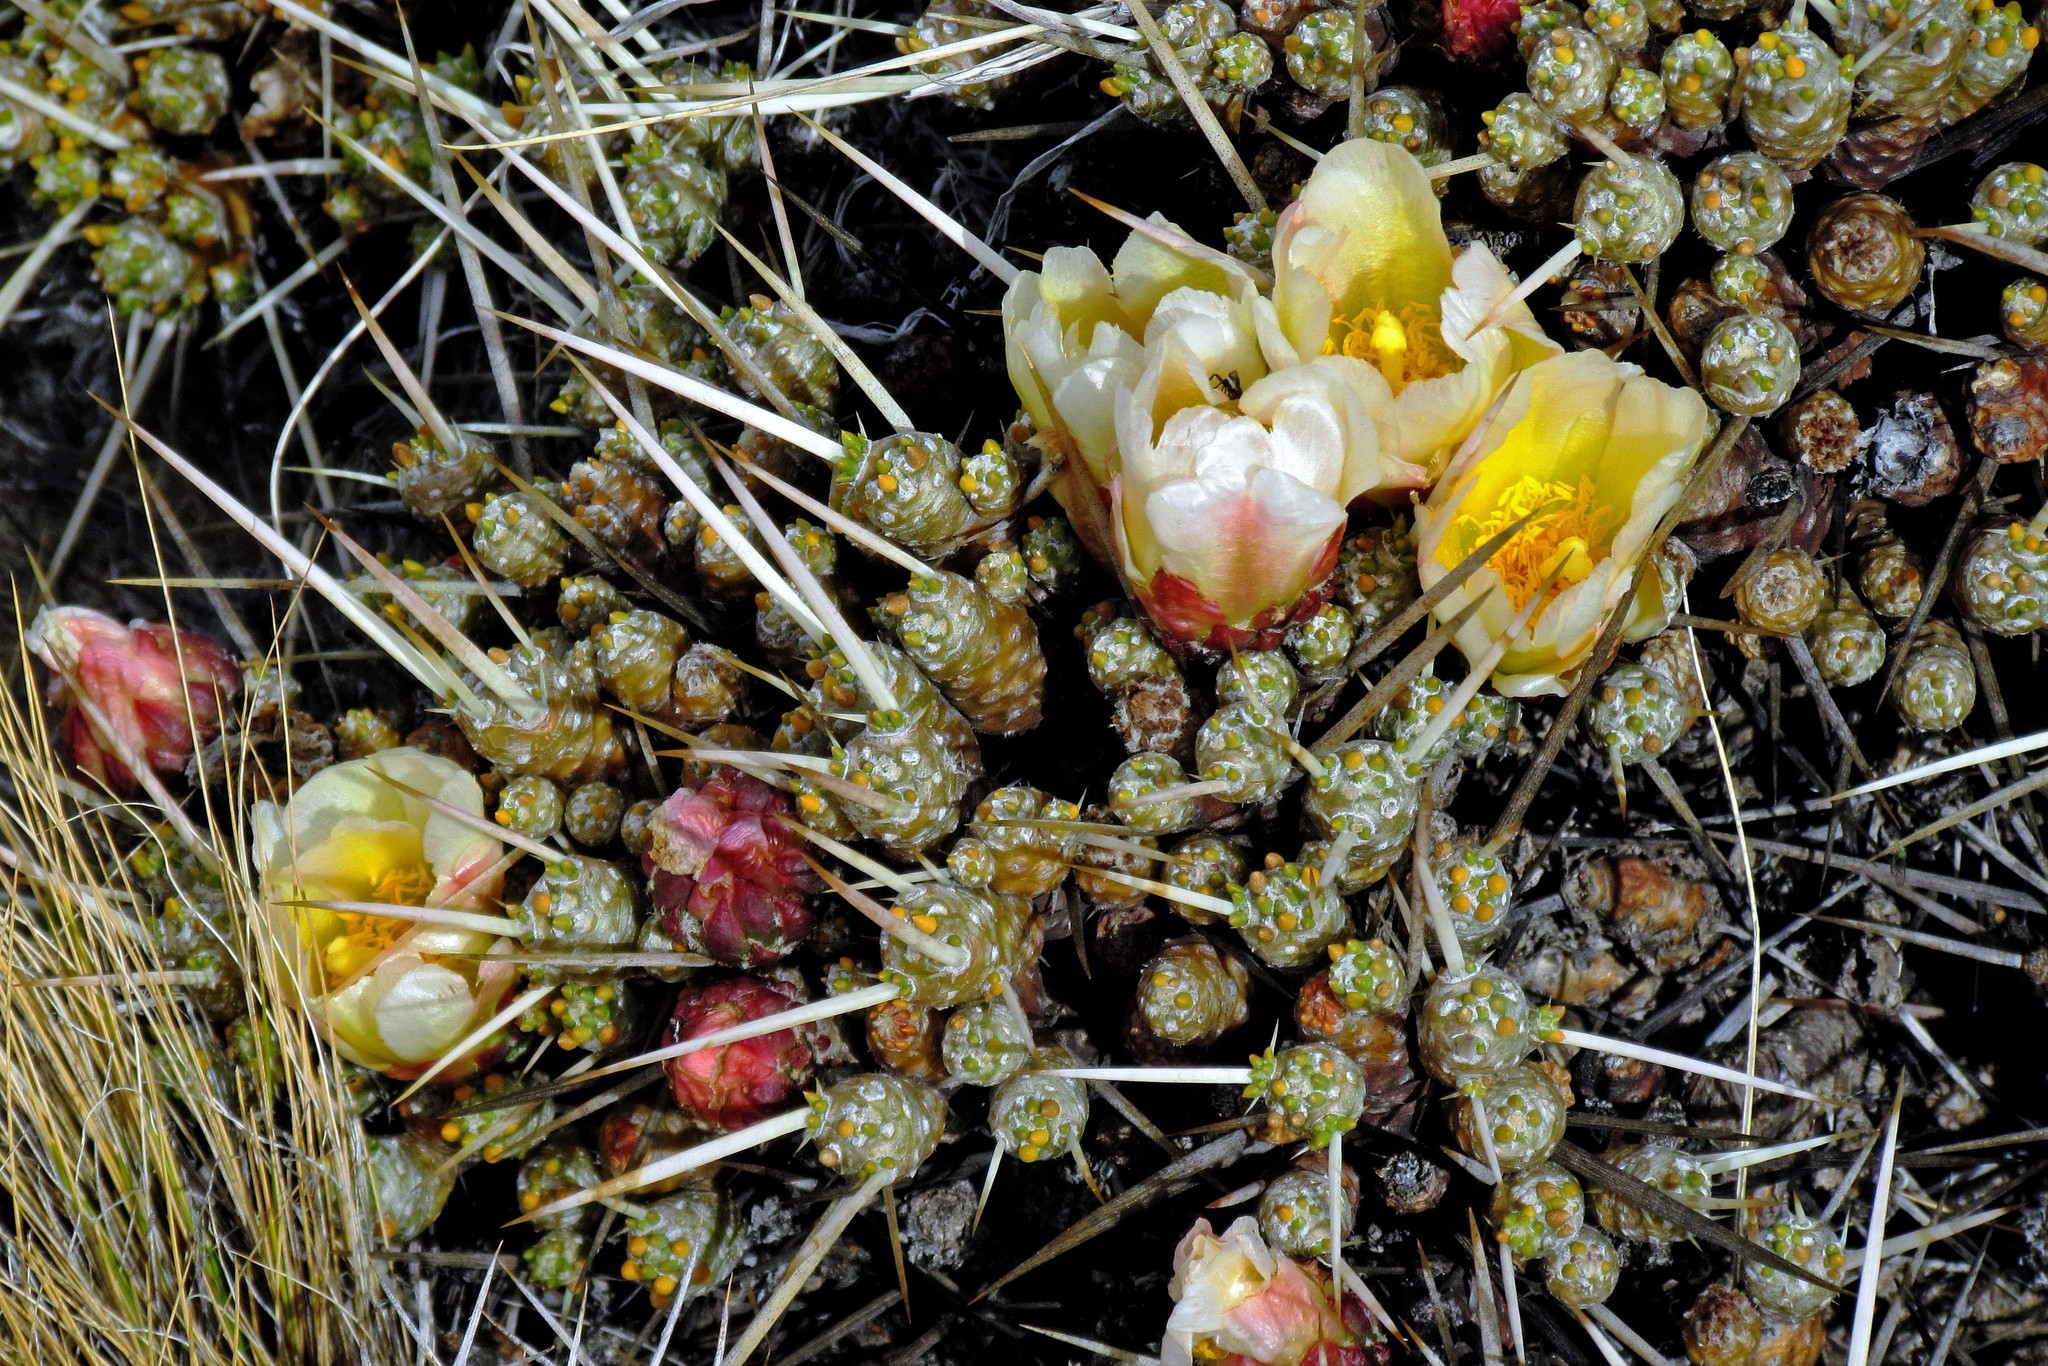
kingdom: Plantae
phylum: Tracheophyta
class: Magnoliopsida
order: Caryophyllales
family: Cactaceae
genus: Maihuenia
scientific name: Maihuenia patagonica
